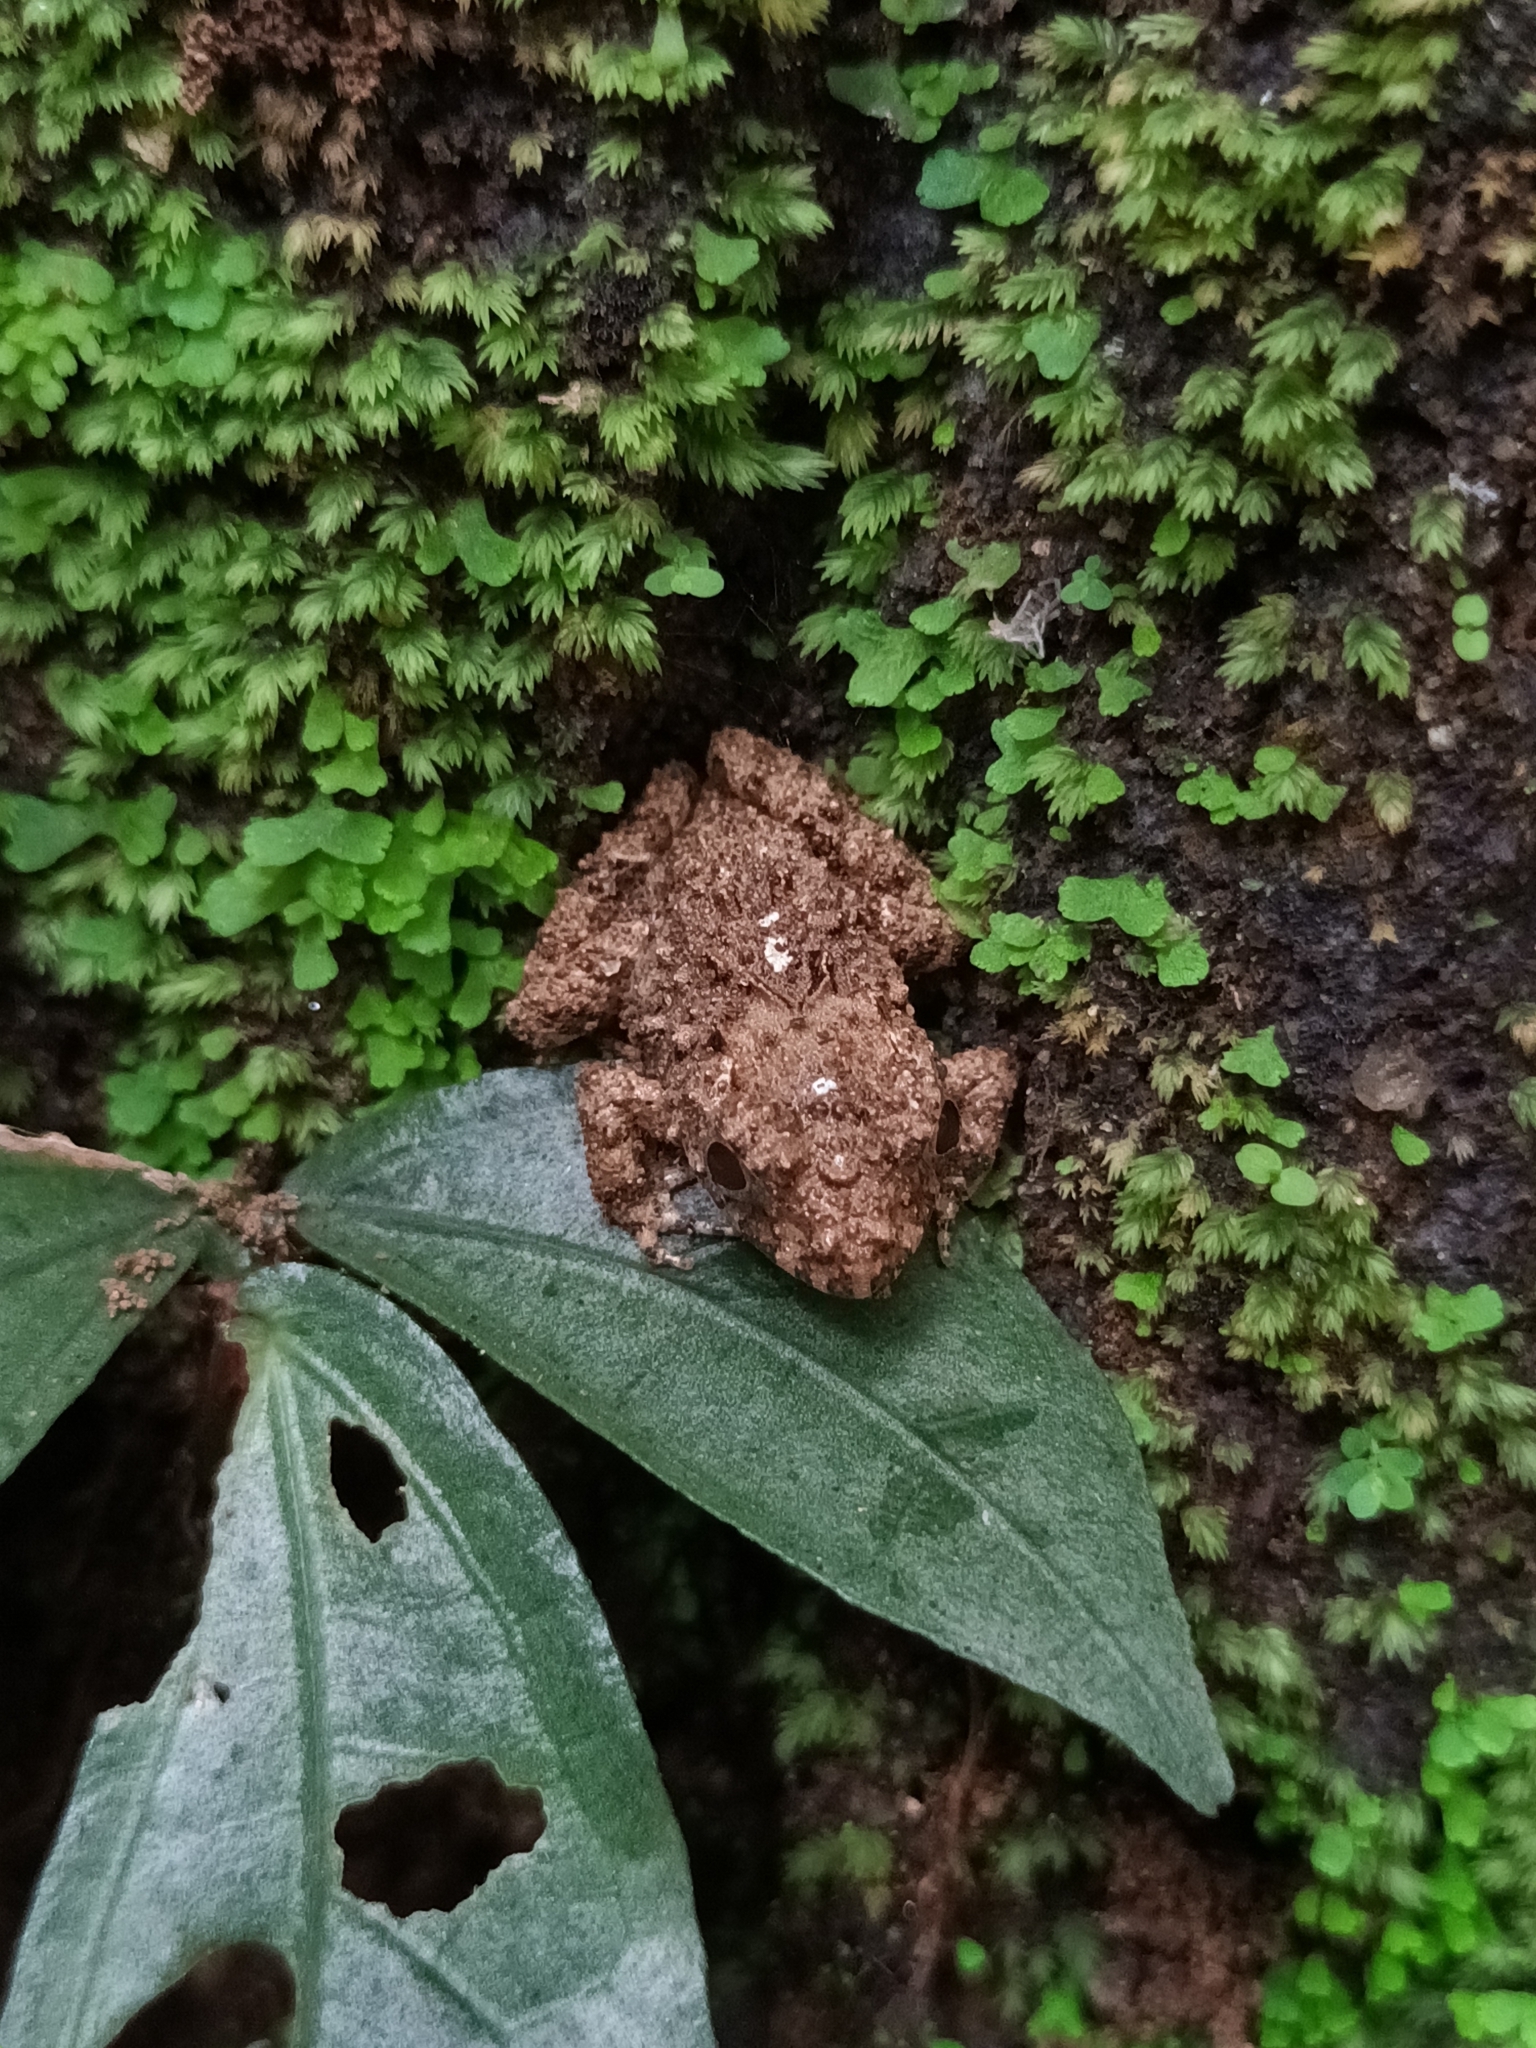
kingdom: Animalia
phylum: Chordata
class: Amphibia
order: Anura
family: Dicroglossidae
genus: Minervarya
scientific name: Minervarya keralensis
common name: Dubois' hill frog
